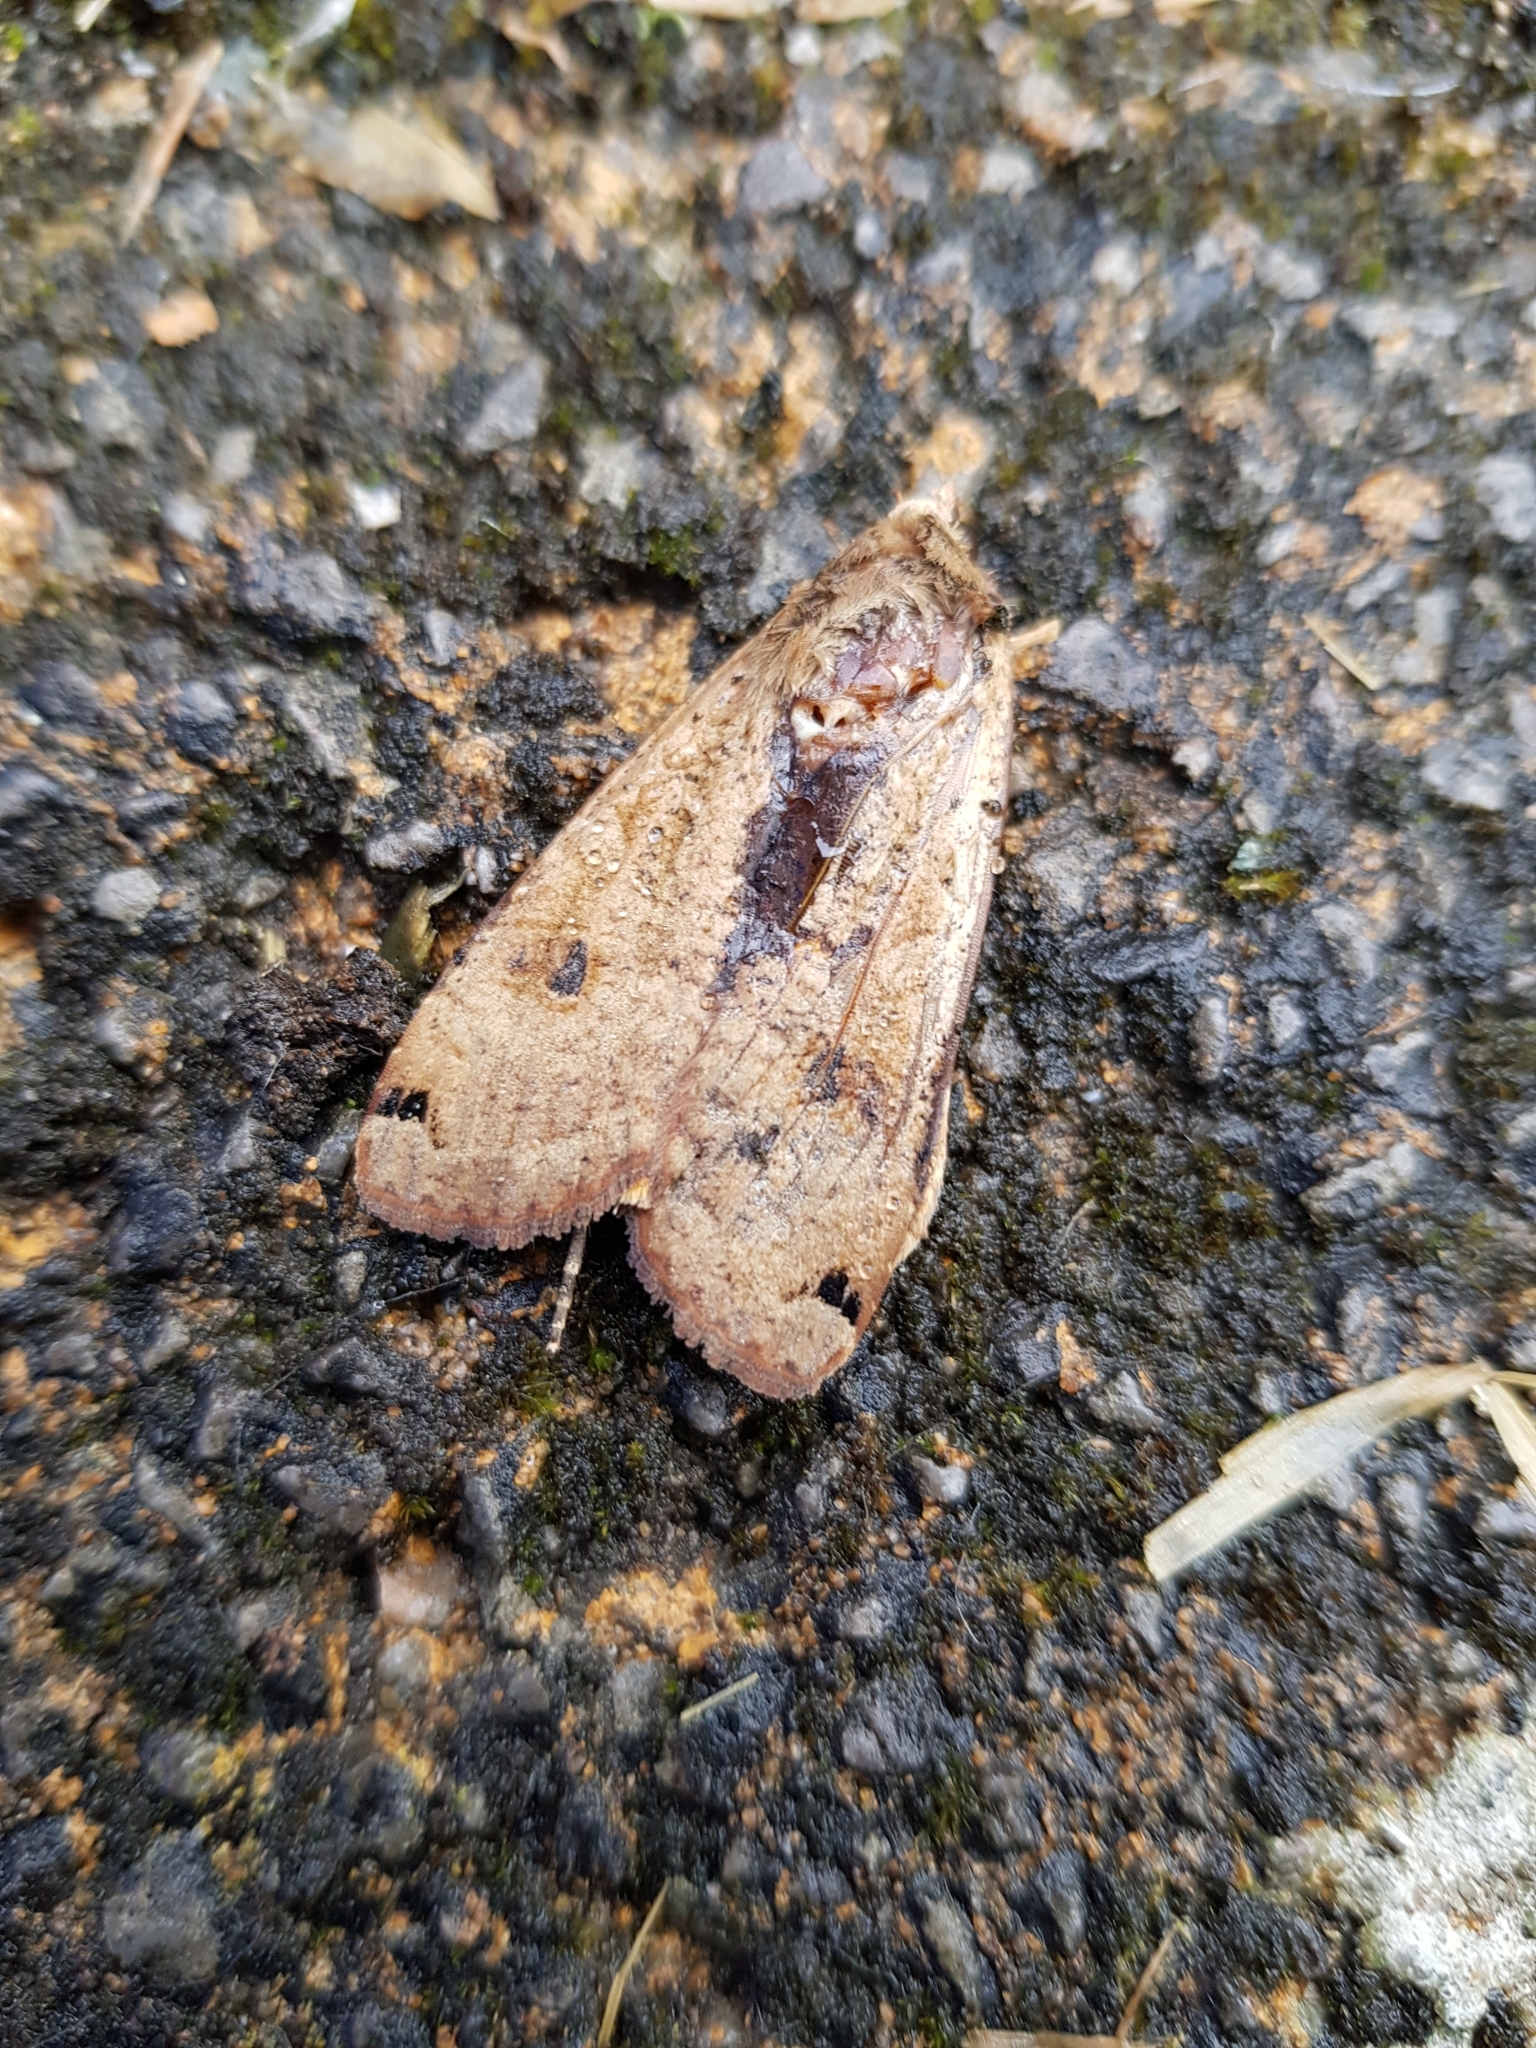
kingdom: Animalia
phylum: Arthropoda
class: Insecta
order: Lepidoptera
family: Noctuidae
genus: Noctua
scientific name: Noctua pronuba
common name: Large yellow underwing
